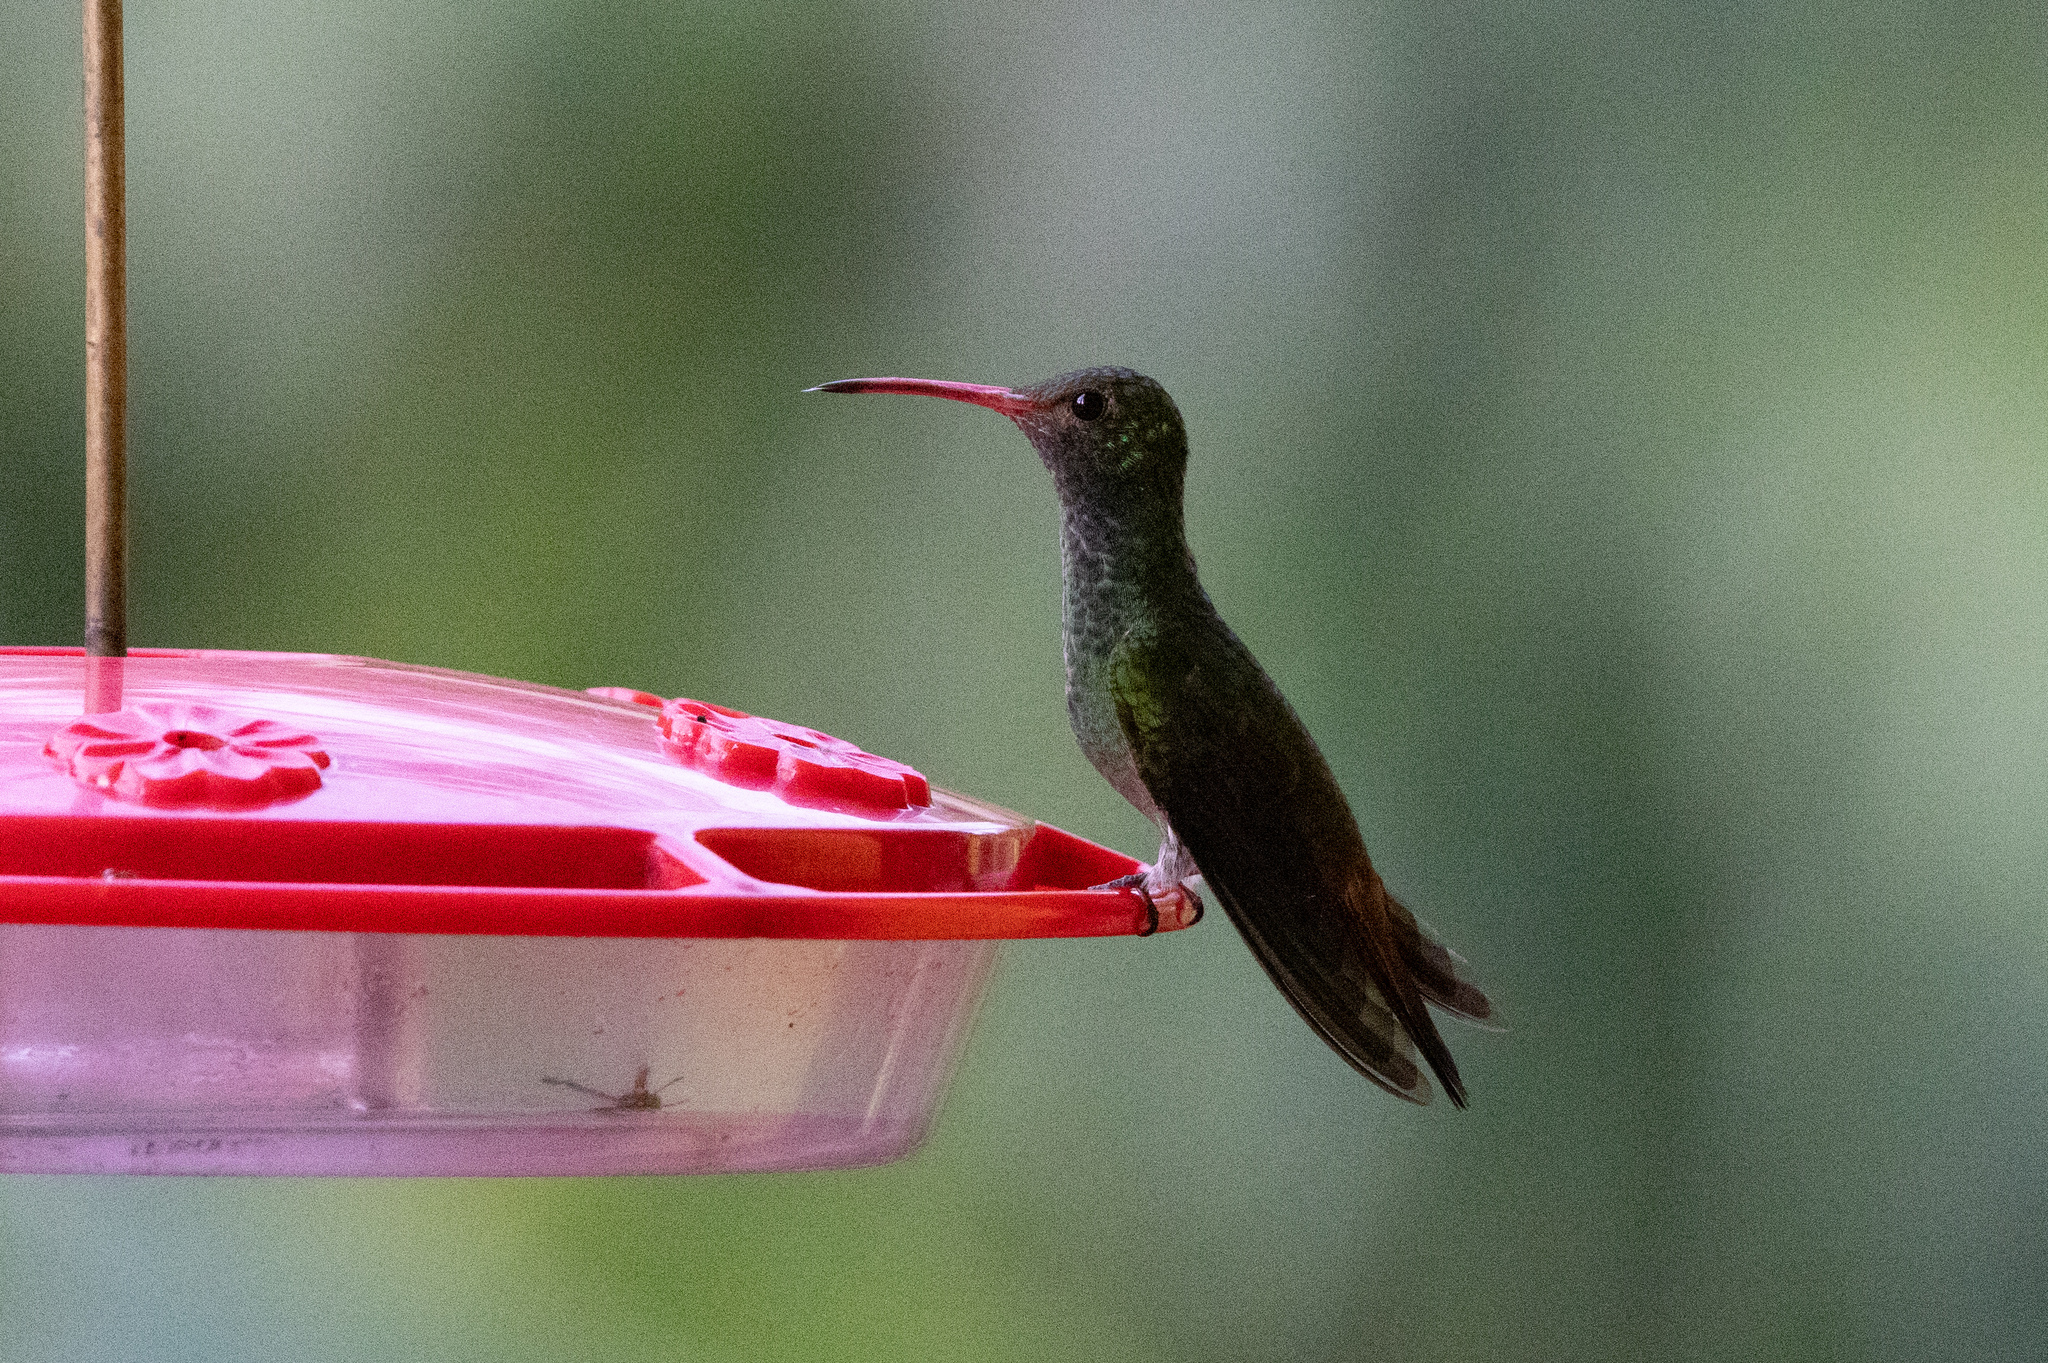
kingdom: Animalia
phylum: Chordata
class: Aves
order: Apodiformes
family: Trochilidae
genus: Amazilia
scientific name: Amazilia tzacatl
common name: Rufous-tailed hummingbird
